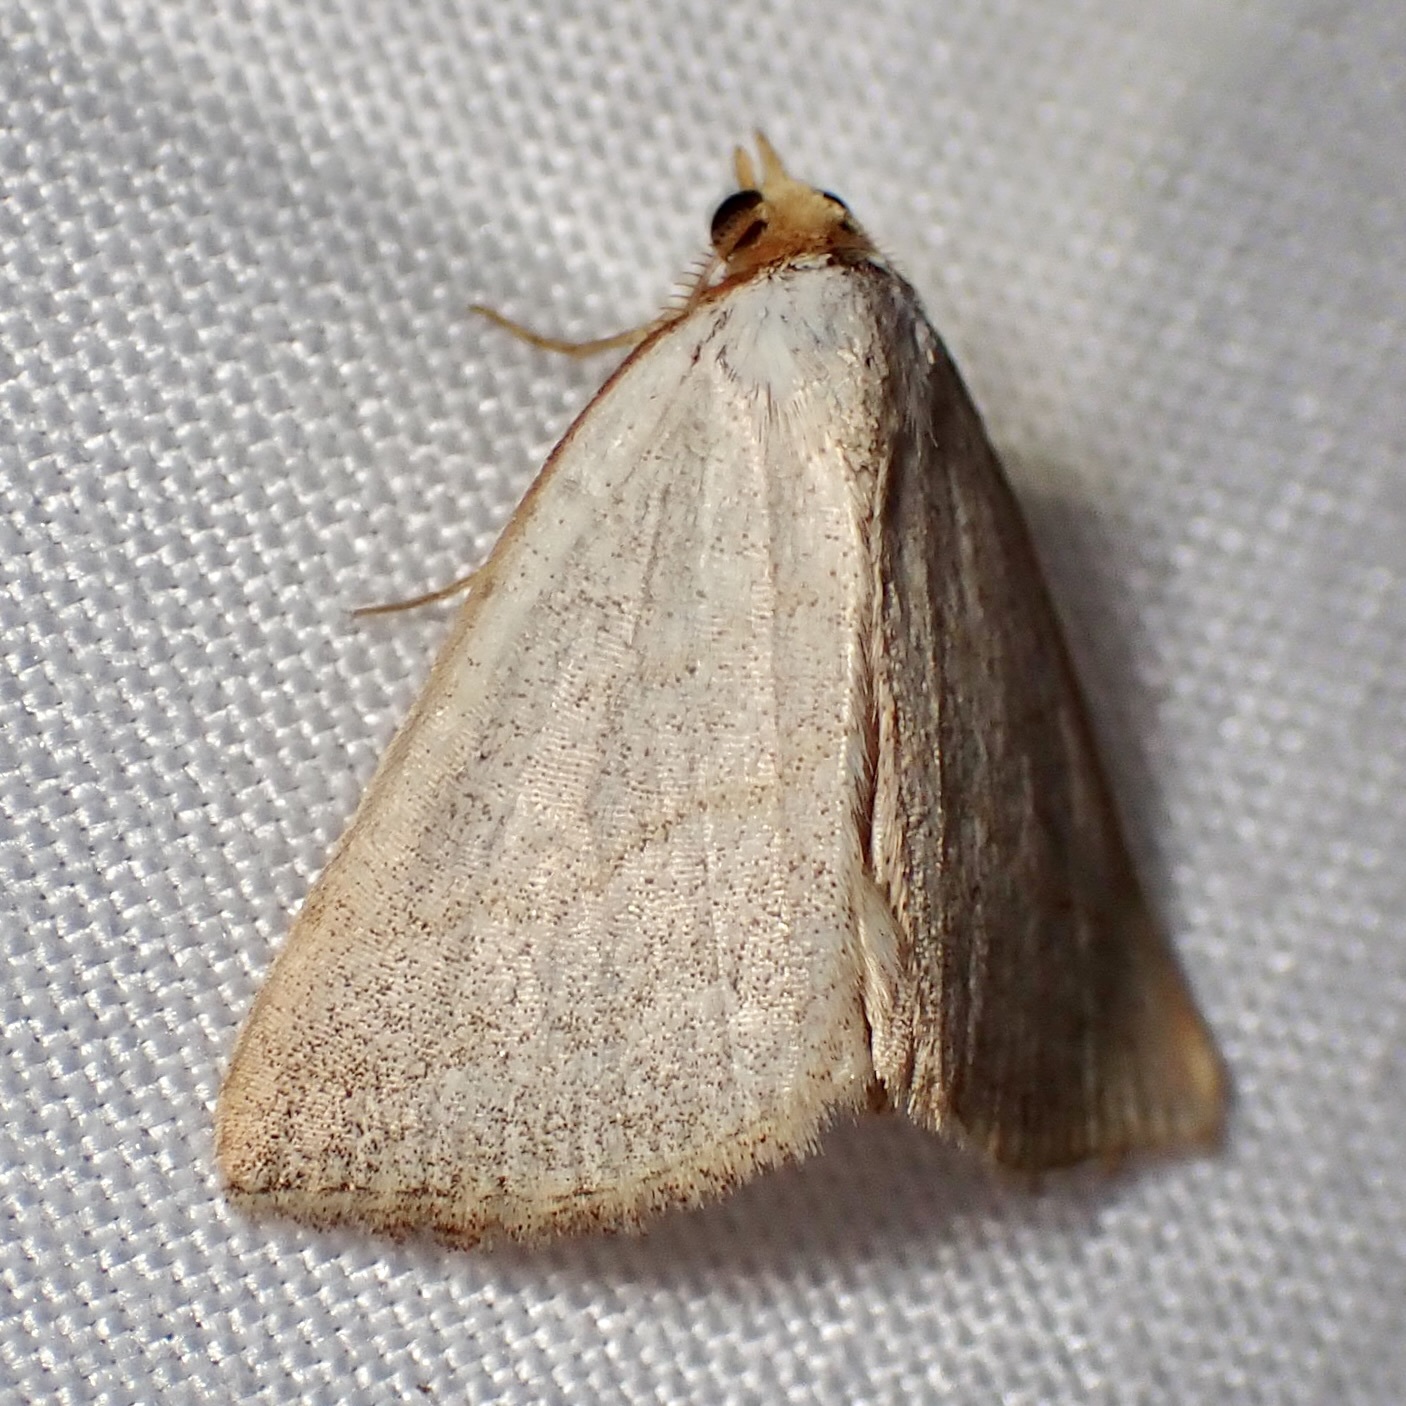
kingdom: Animalia
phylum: Arthropoda
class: Insecta
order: Lepidoptera
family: Erebidae
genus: Oxycilla
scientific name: Oxycilla tripla
